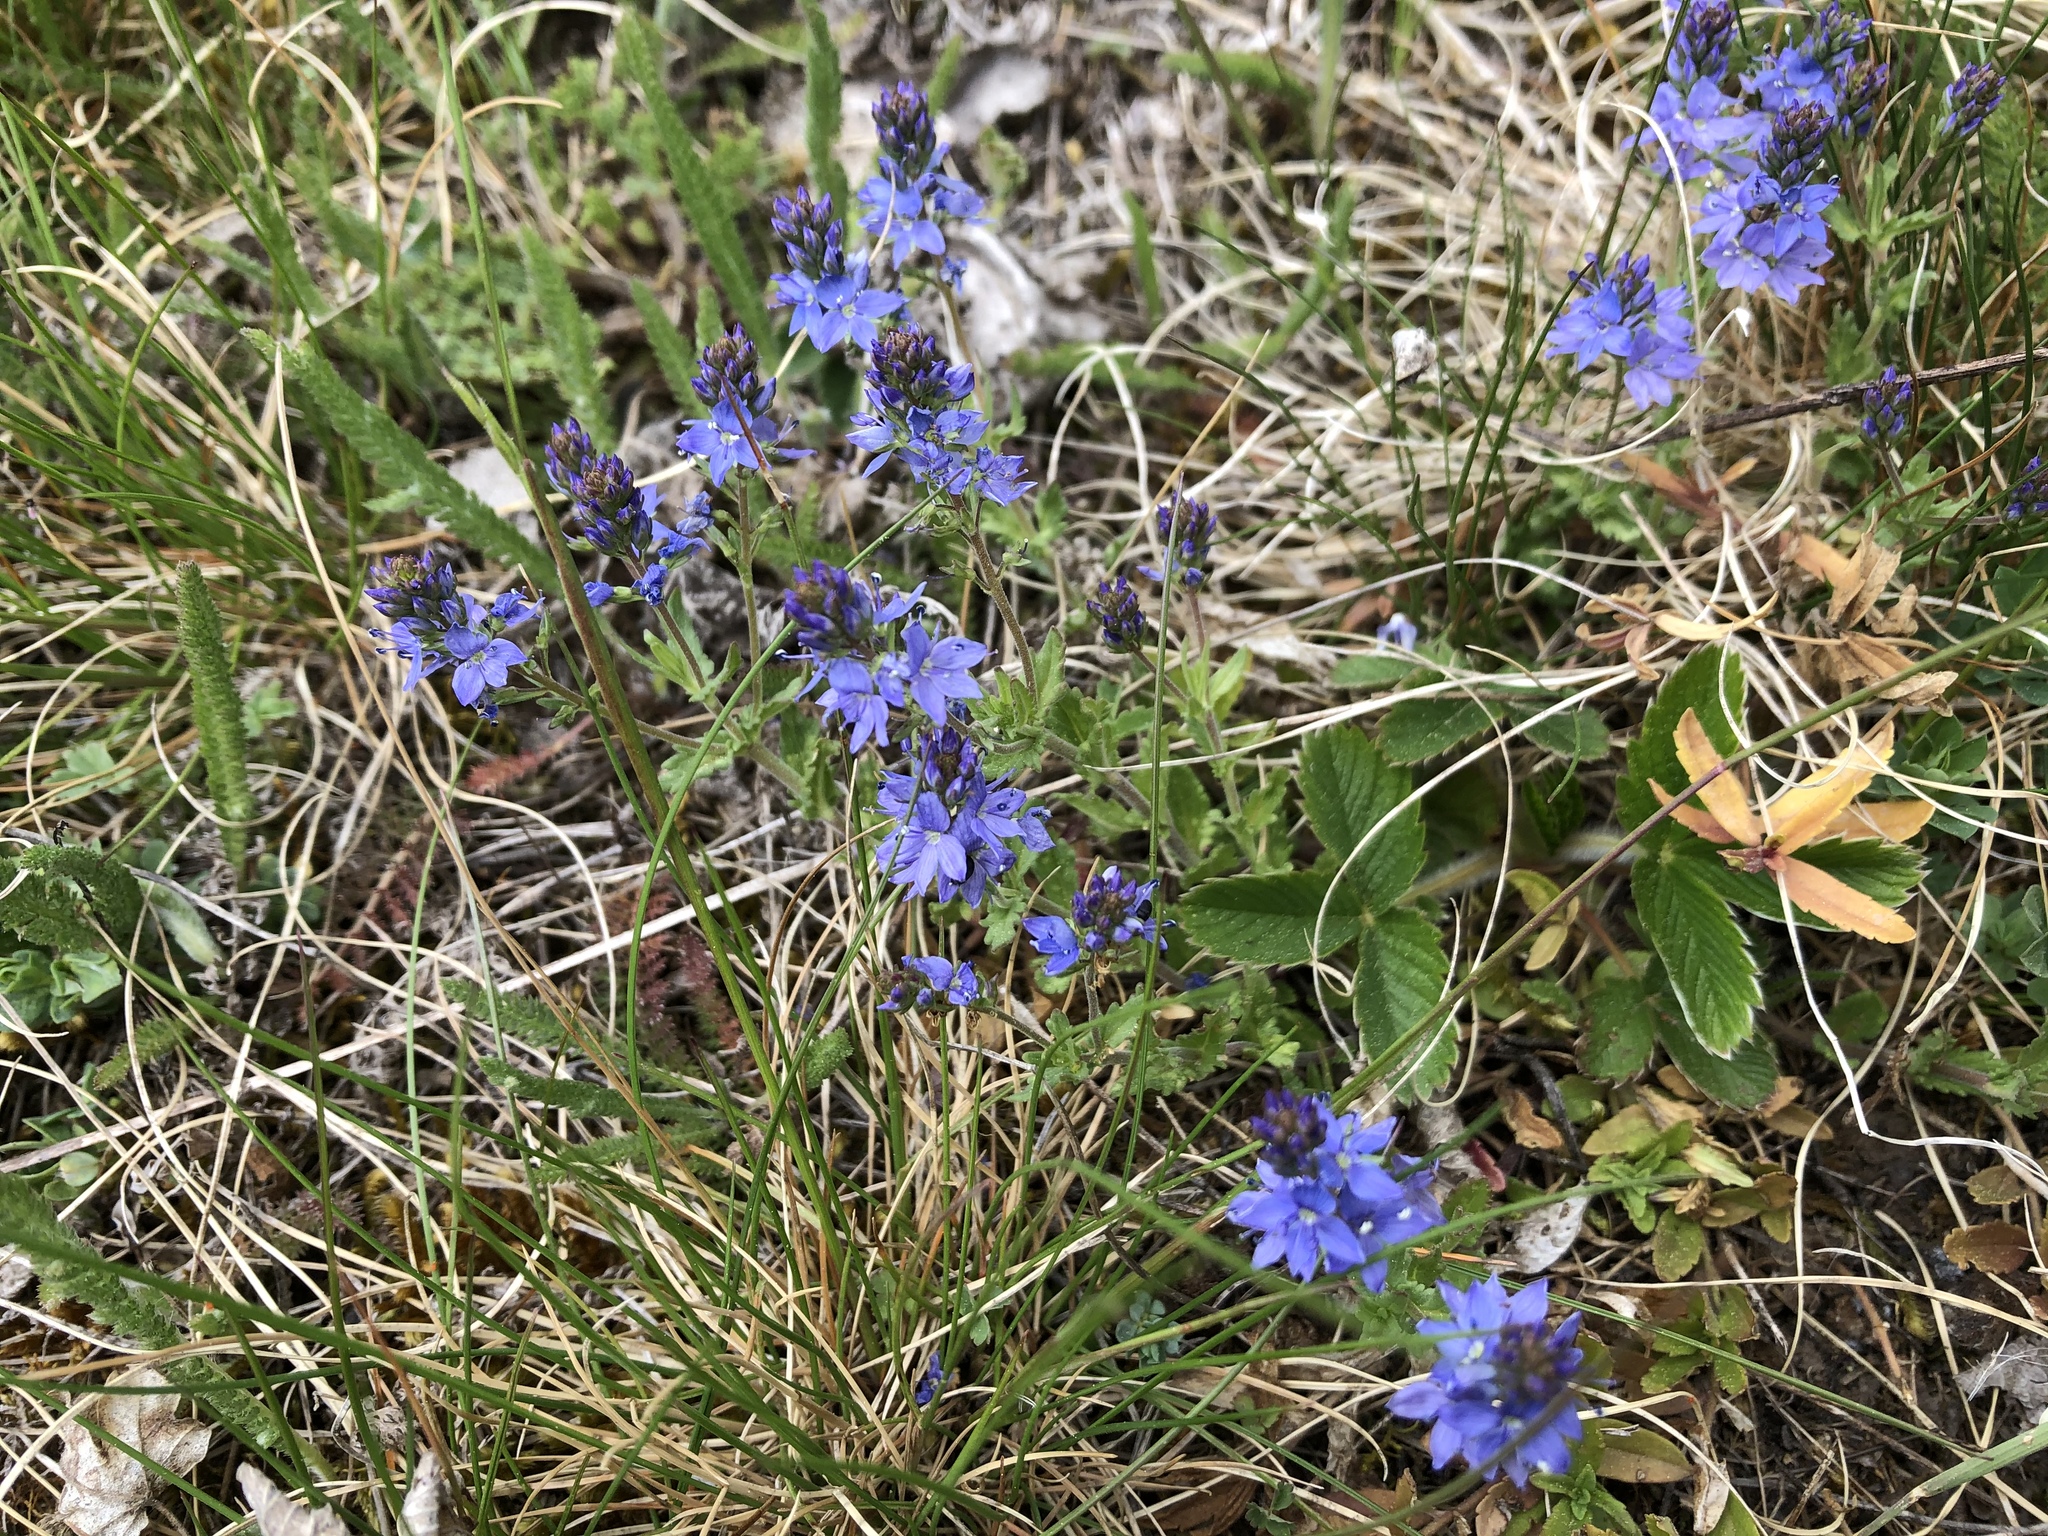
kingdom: Plantae
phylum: Tracheophyta
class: Magnoliopsida
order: Lamiales
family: Plantaginaceae
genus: Veronica
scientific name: Veronica prostrata
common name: Prostrate speedwell
